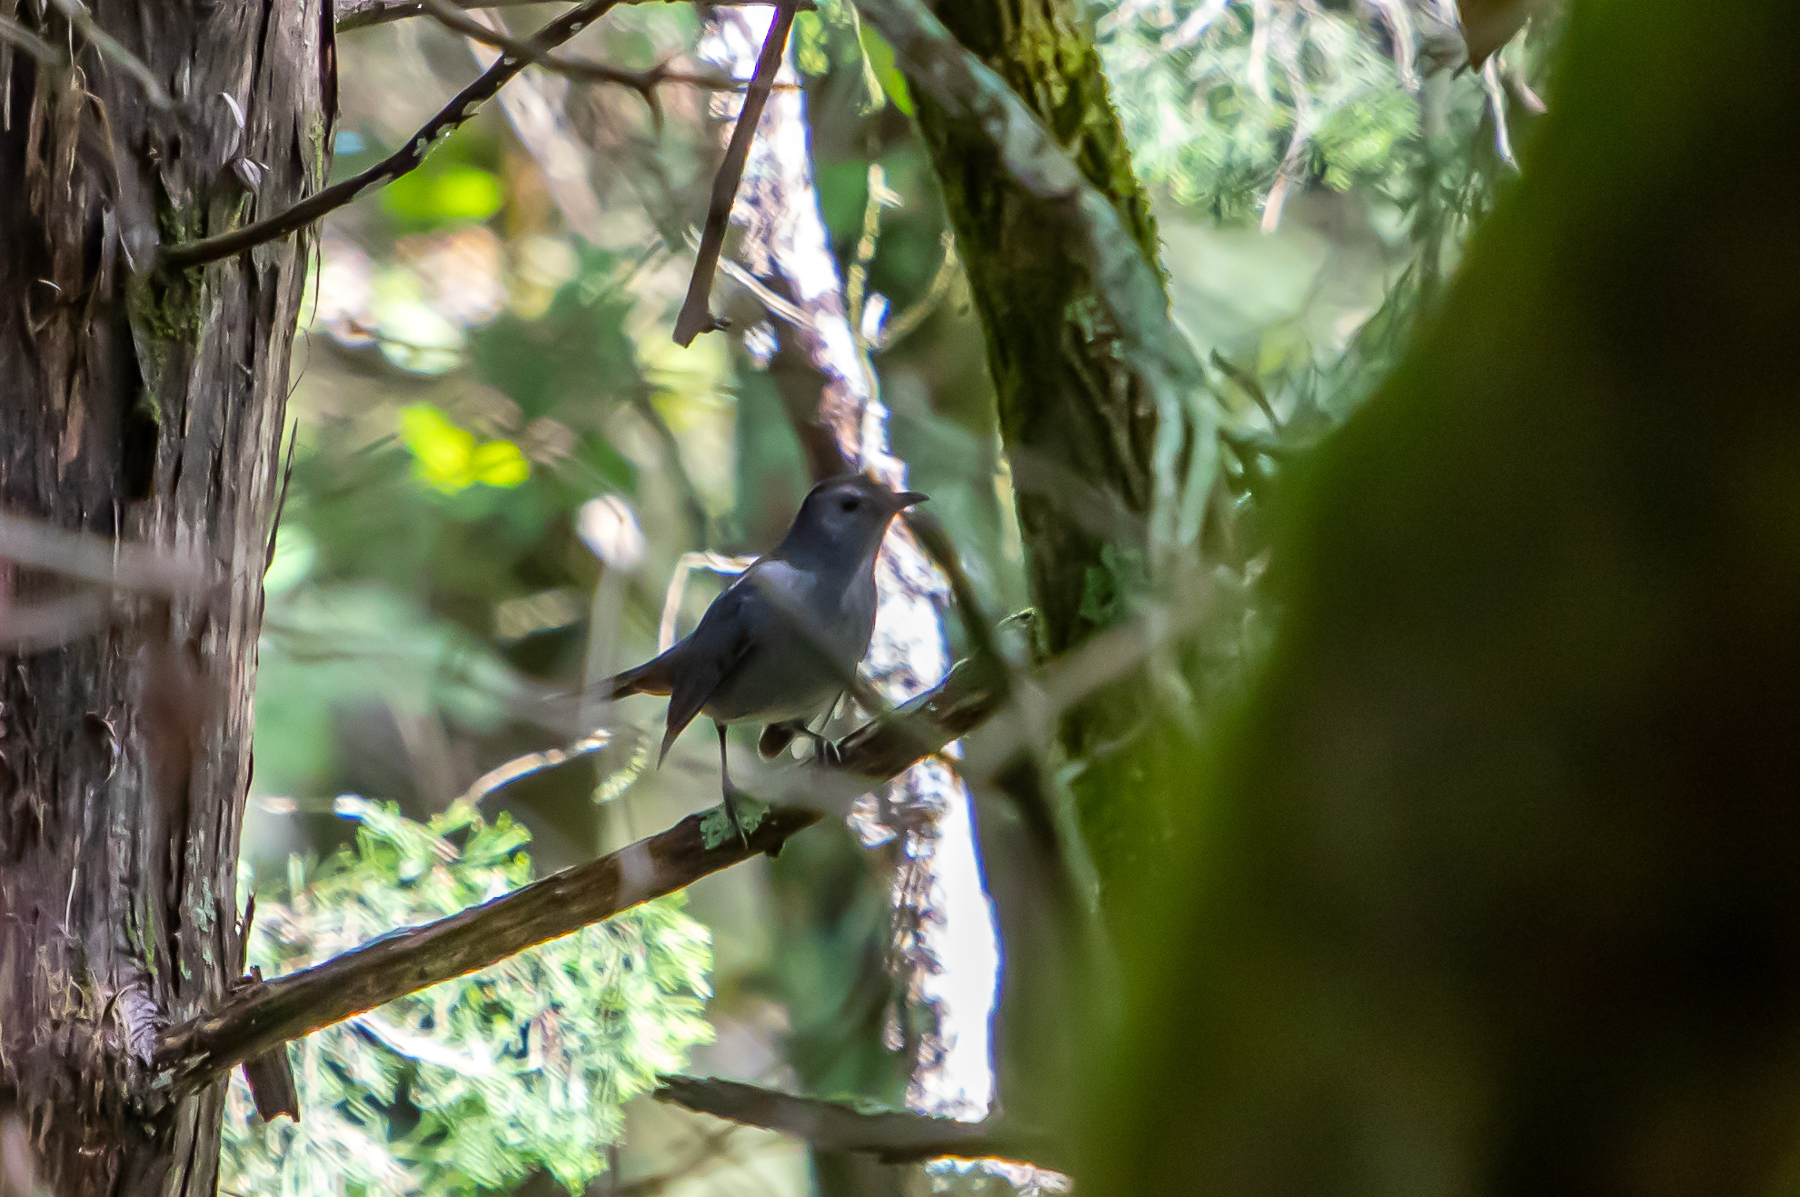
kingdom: Animalia
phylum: Chordata
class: Aves
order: Passeriformes
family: Mimidae
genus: Dumetella
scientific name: Dumetella carolinensis
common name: Gray catbird
